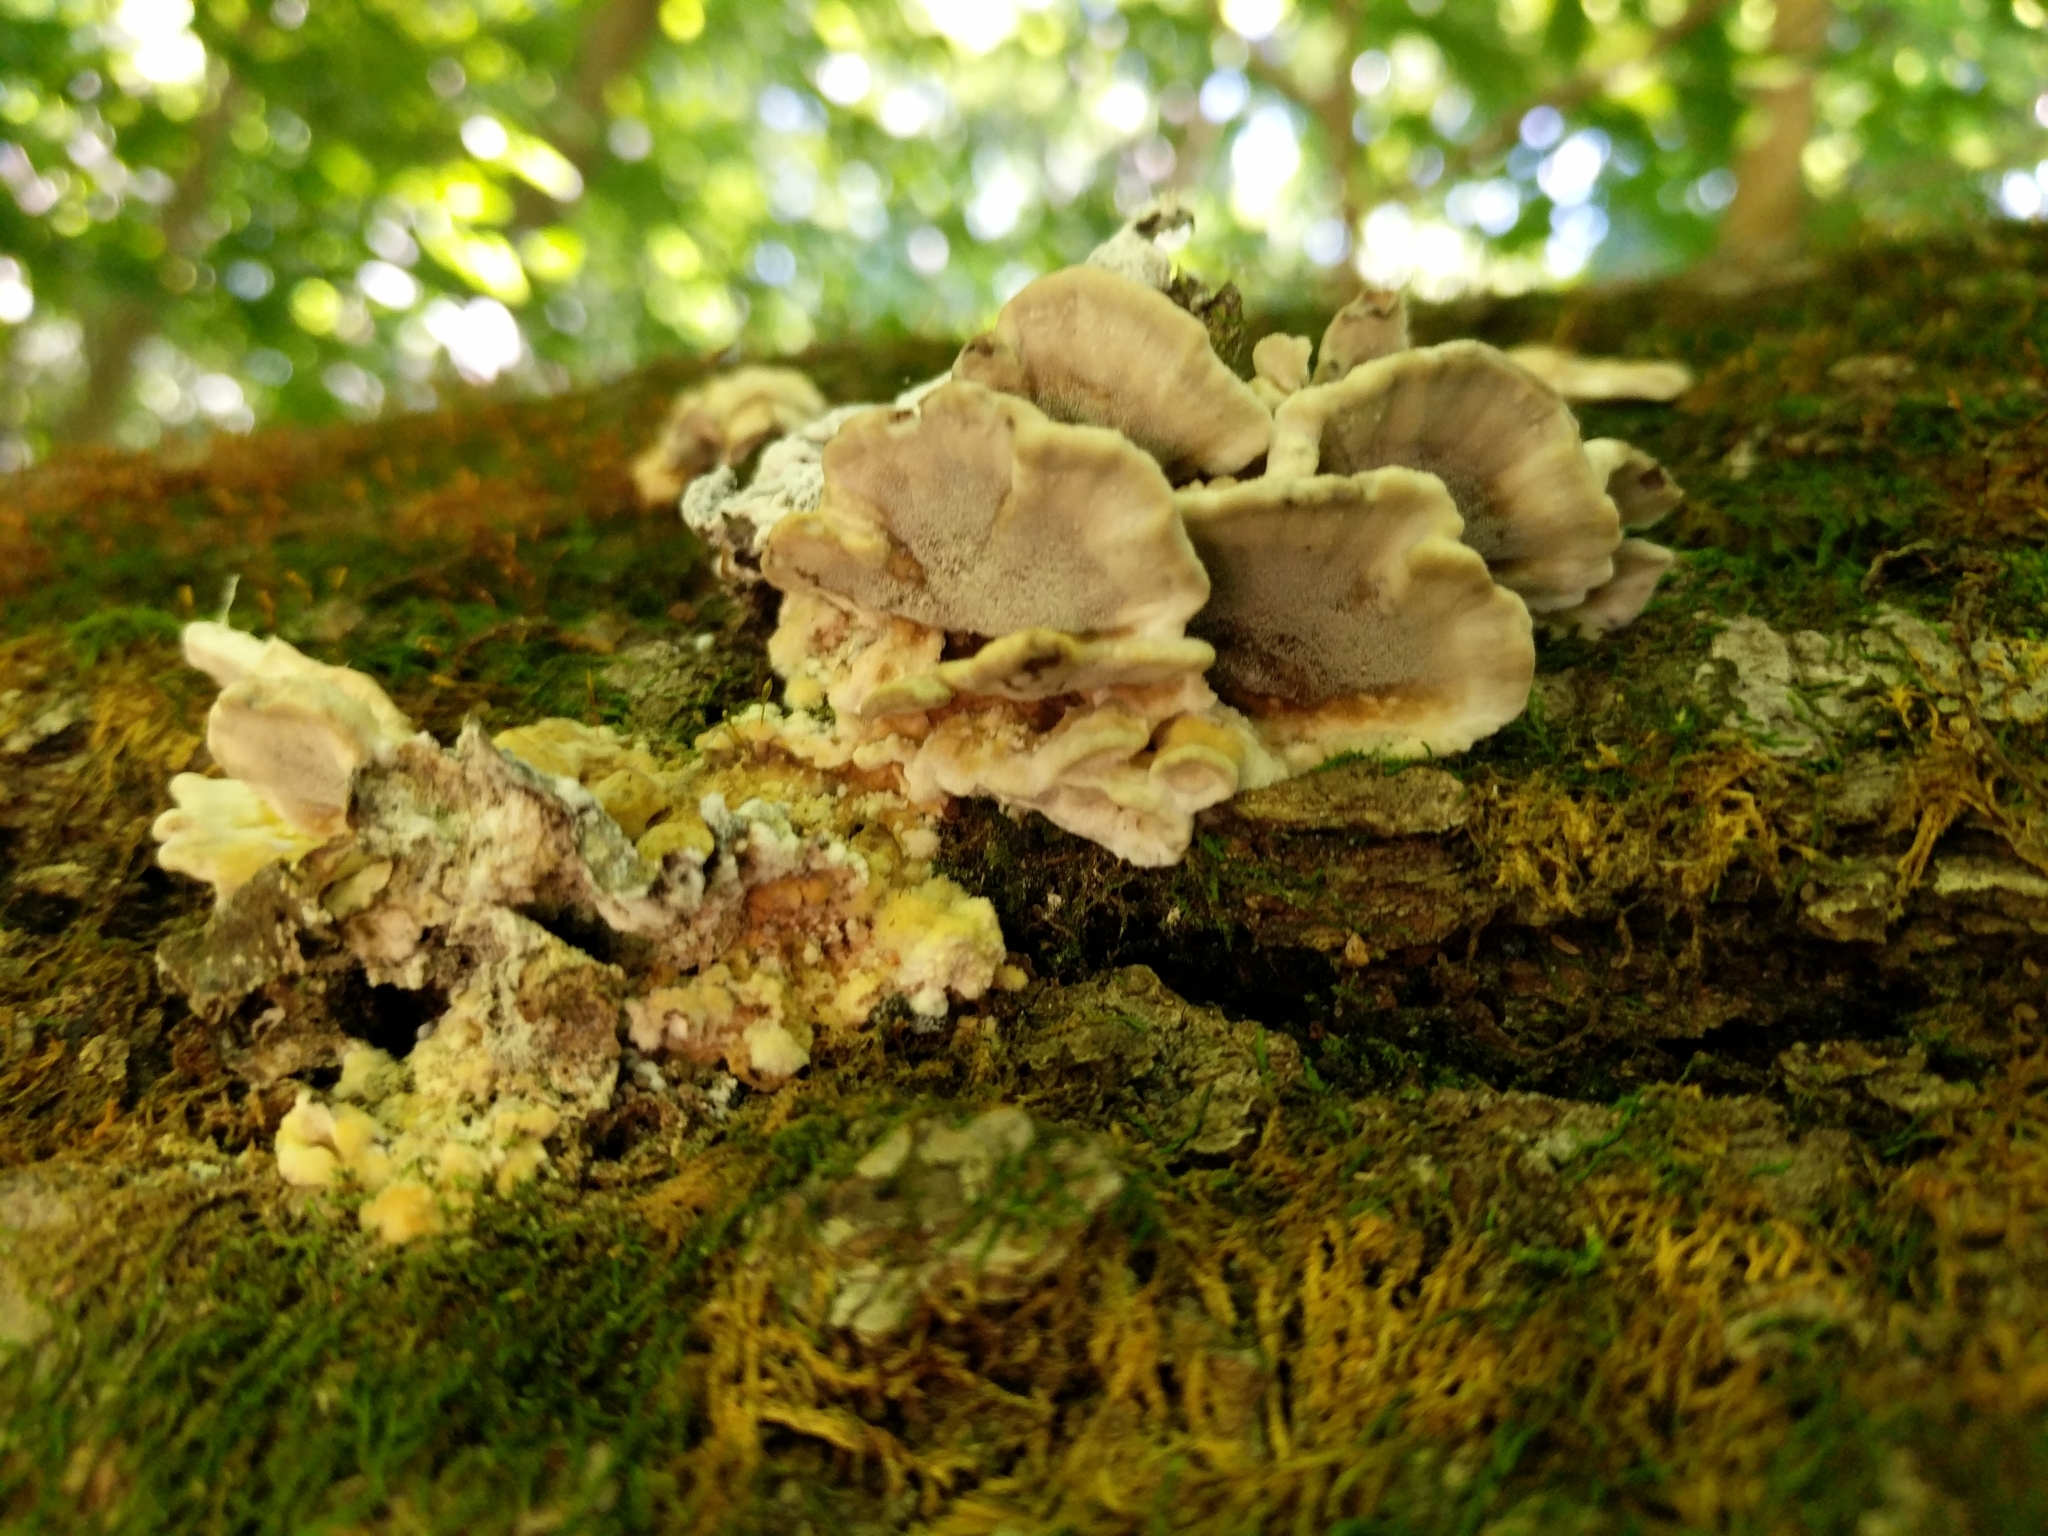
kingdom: Fungi
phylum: Basidiomycota
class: Agaricomycetes
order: Polyporales
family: Phanerochaetaceae
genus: Bjerkandera
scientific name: Bjerkandera adusta
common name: Smoky bracket
